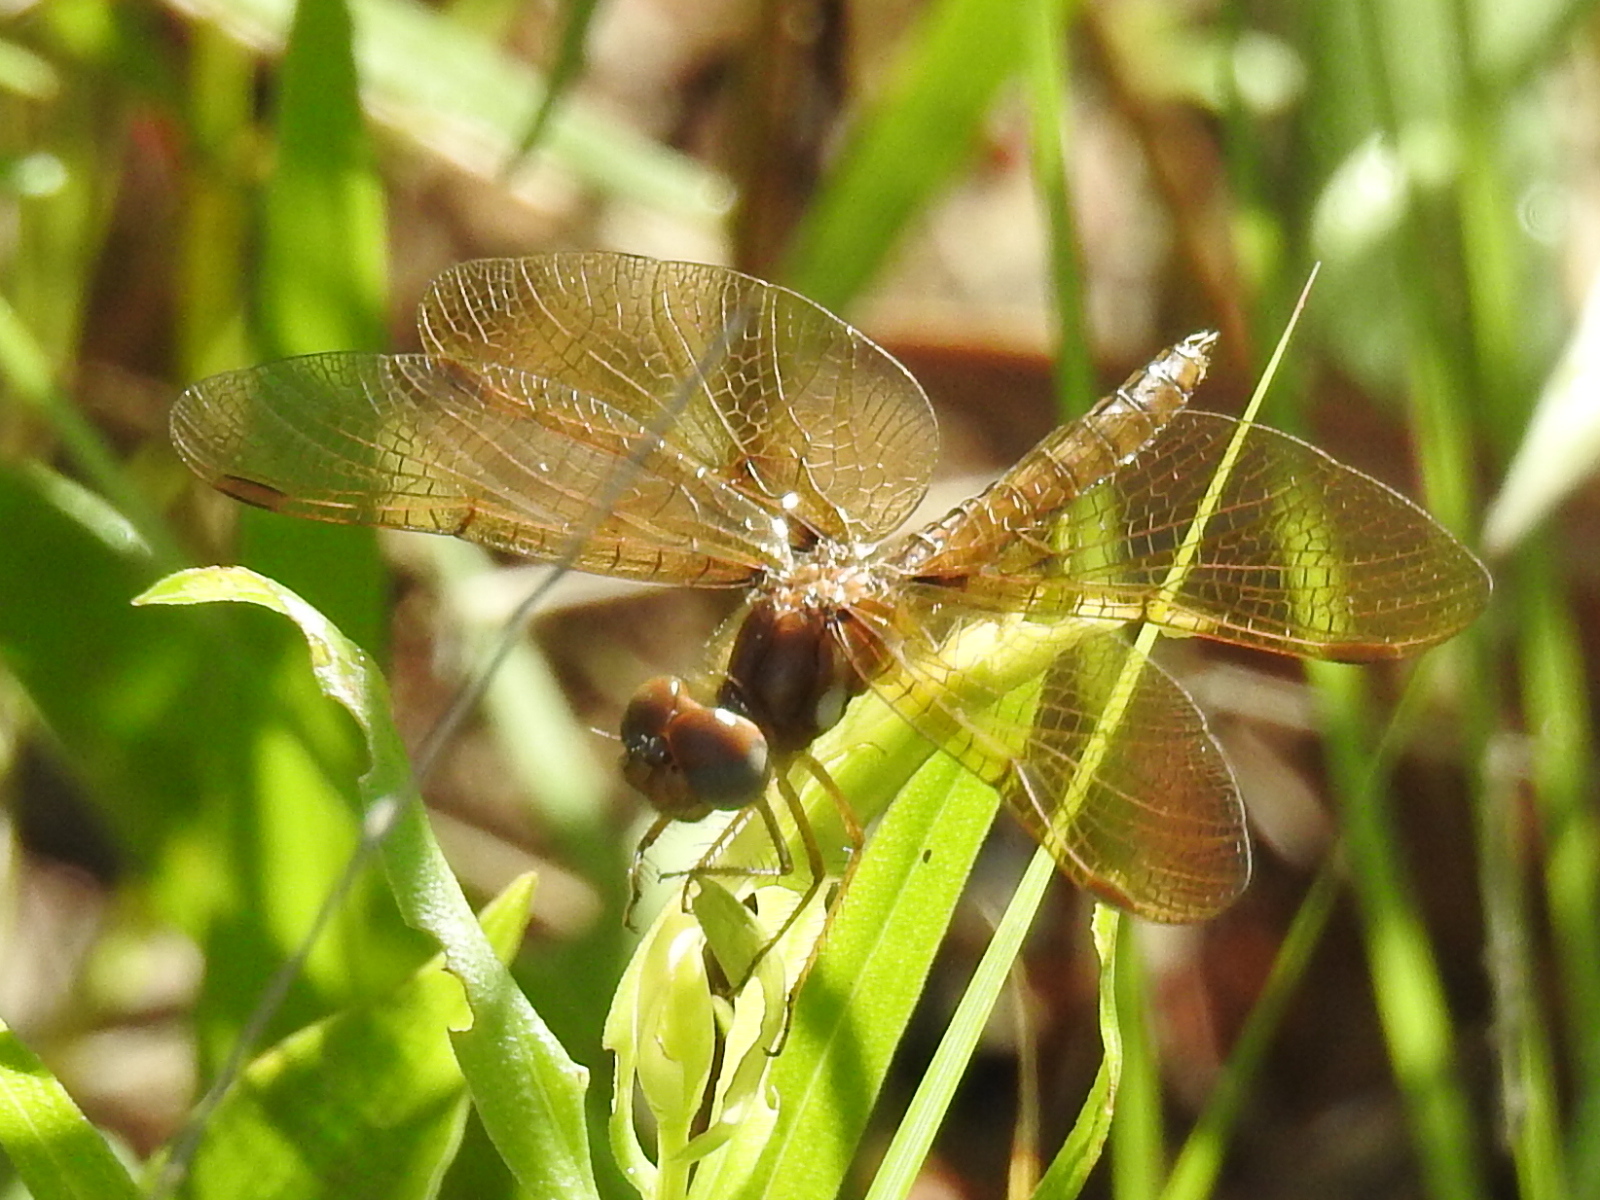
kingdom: Animalia
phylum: Arthropoda
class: Insecta
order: Odonata
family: Libellulidae
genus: Perithemis
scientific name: Perithemis tenera
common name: Eastern amberwing
